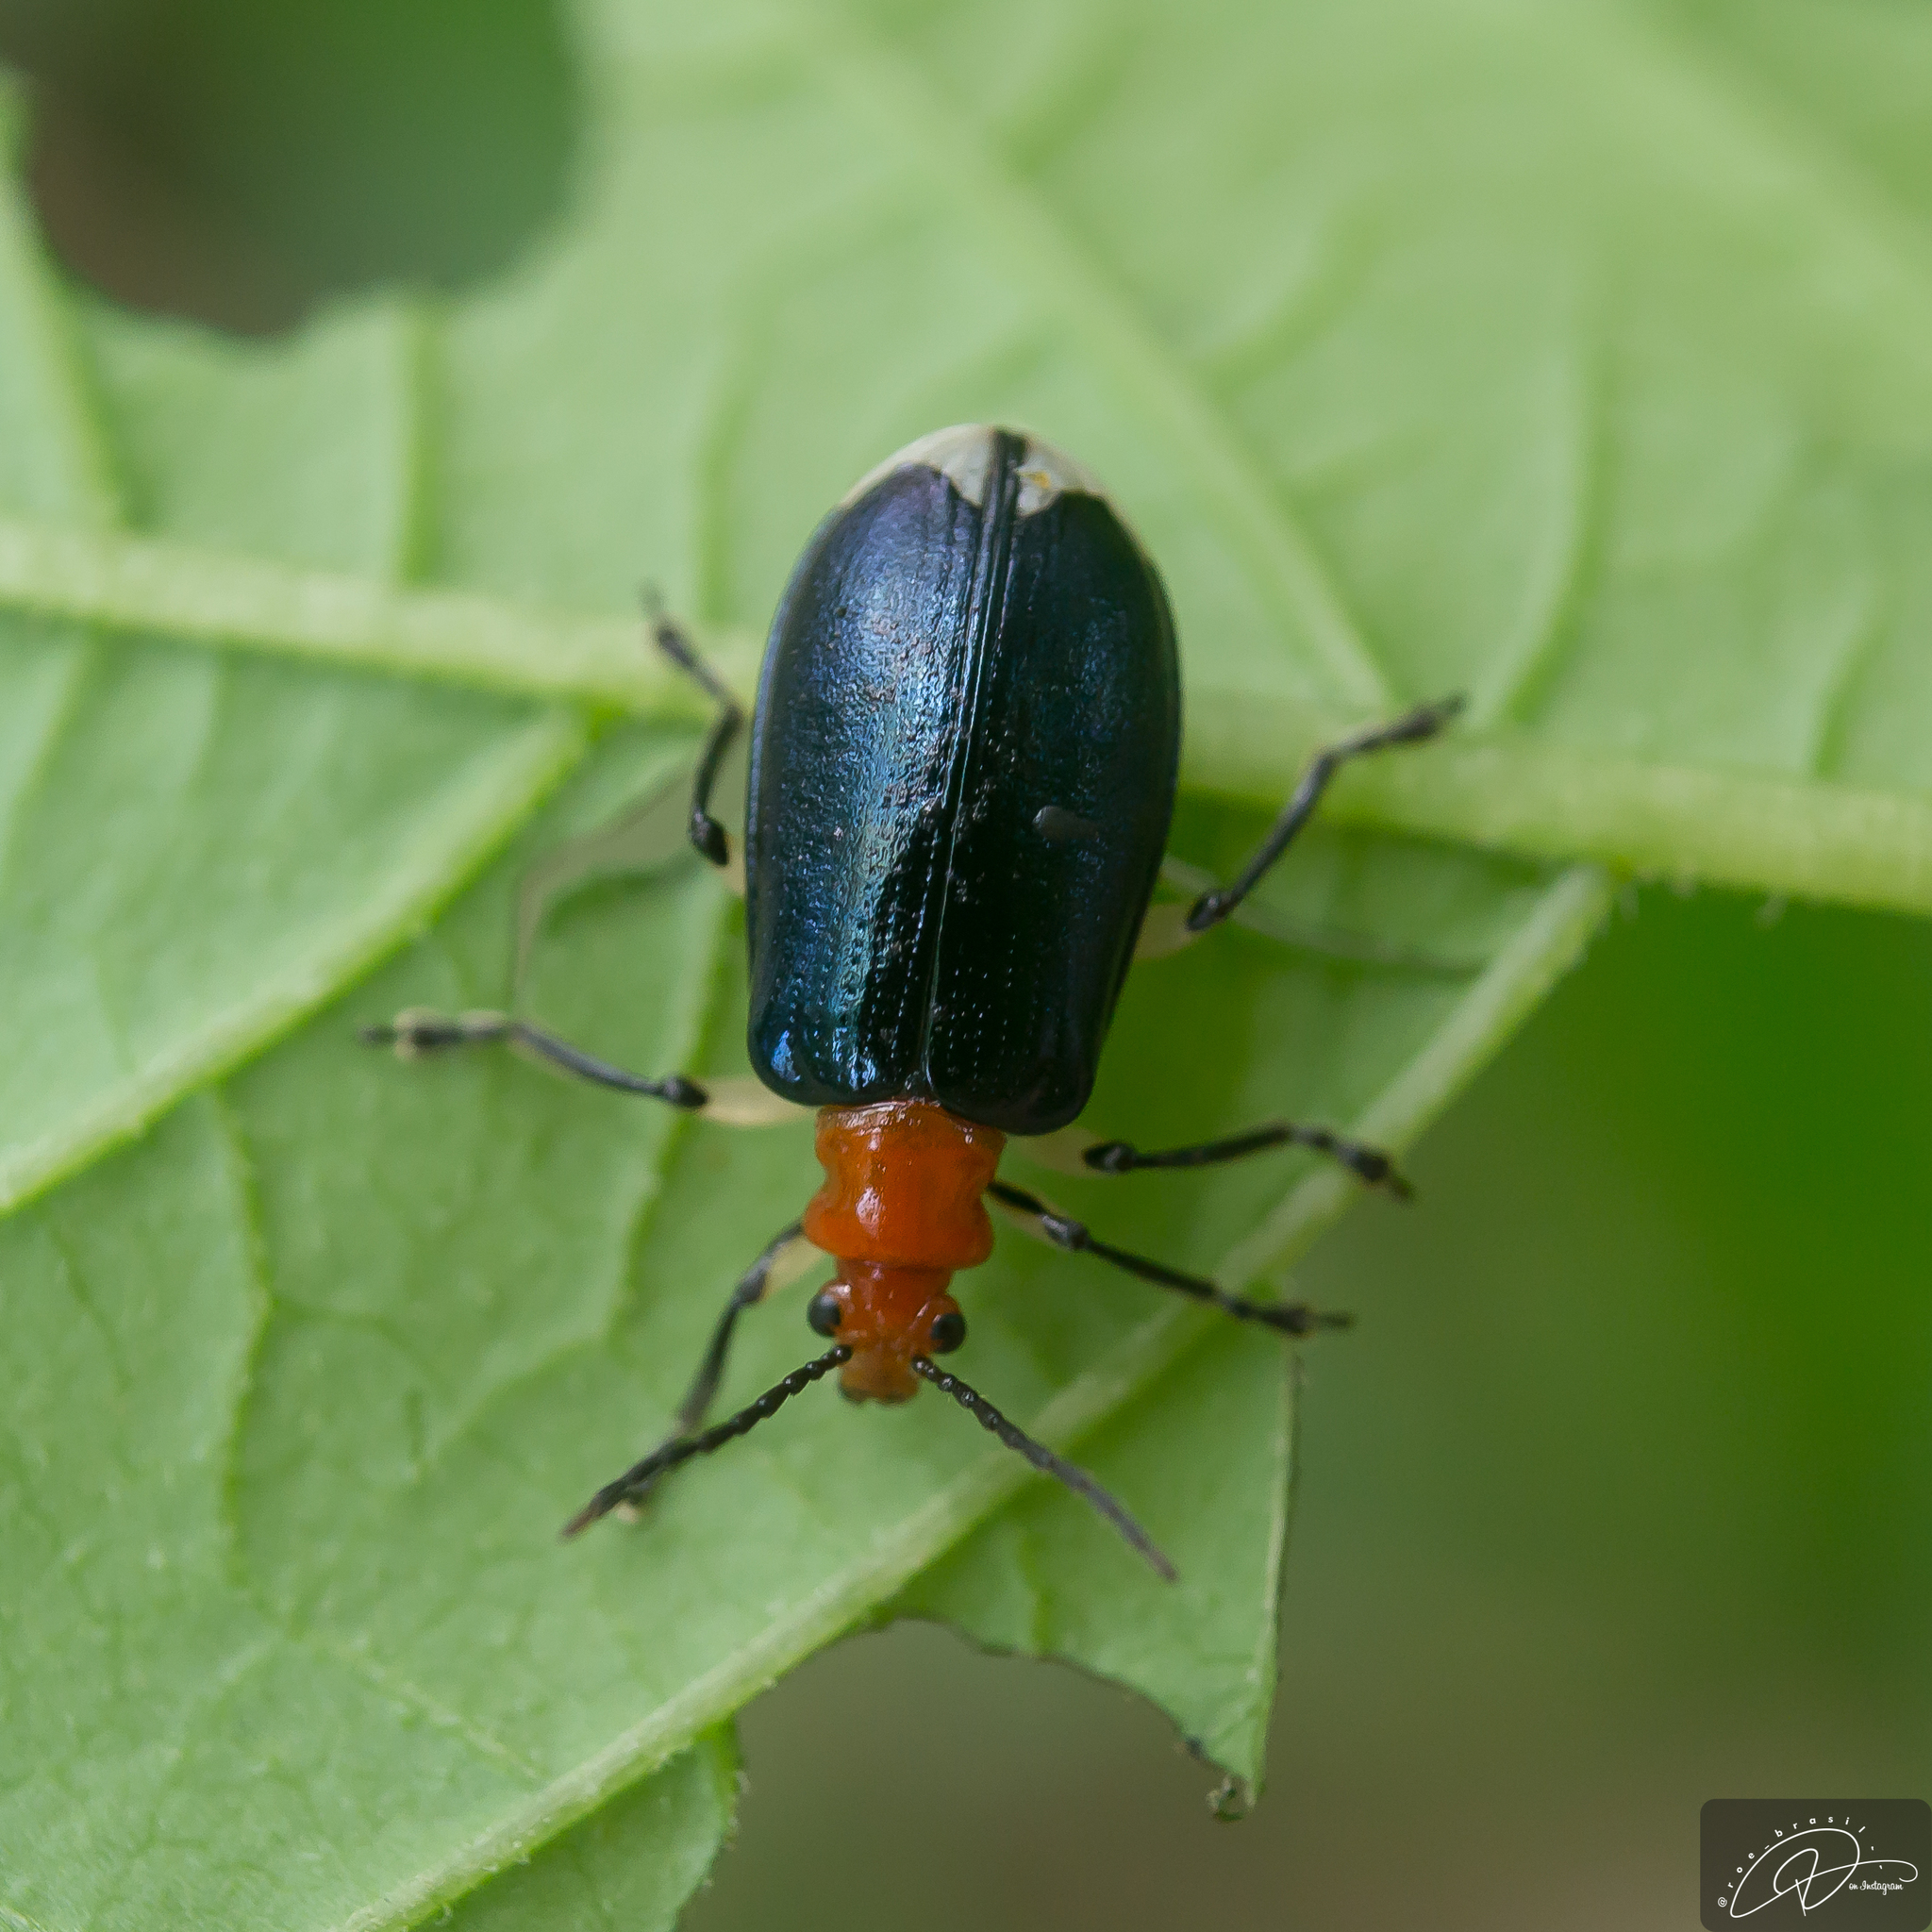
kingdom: Animalia
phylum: Arthropoda
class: Insecta
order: Coleoptera
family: Chrysomelidae
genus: Stolas
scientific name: Stolas chalybaea
